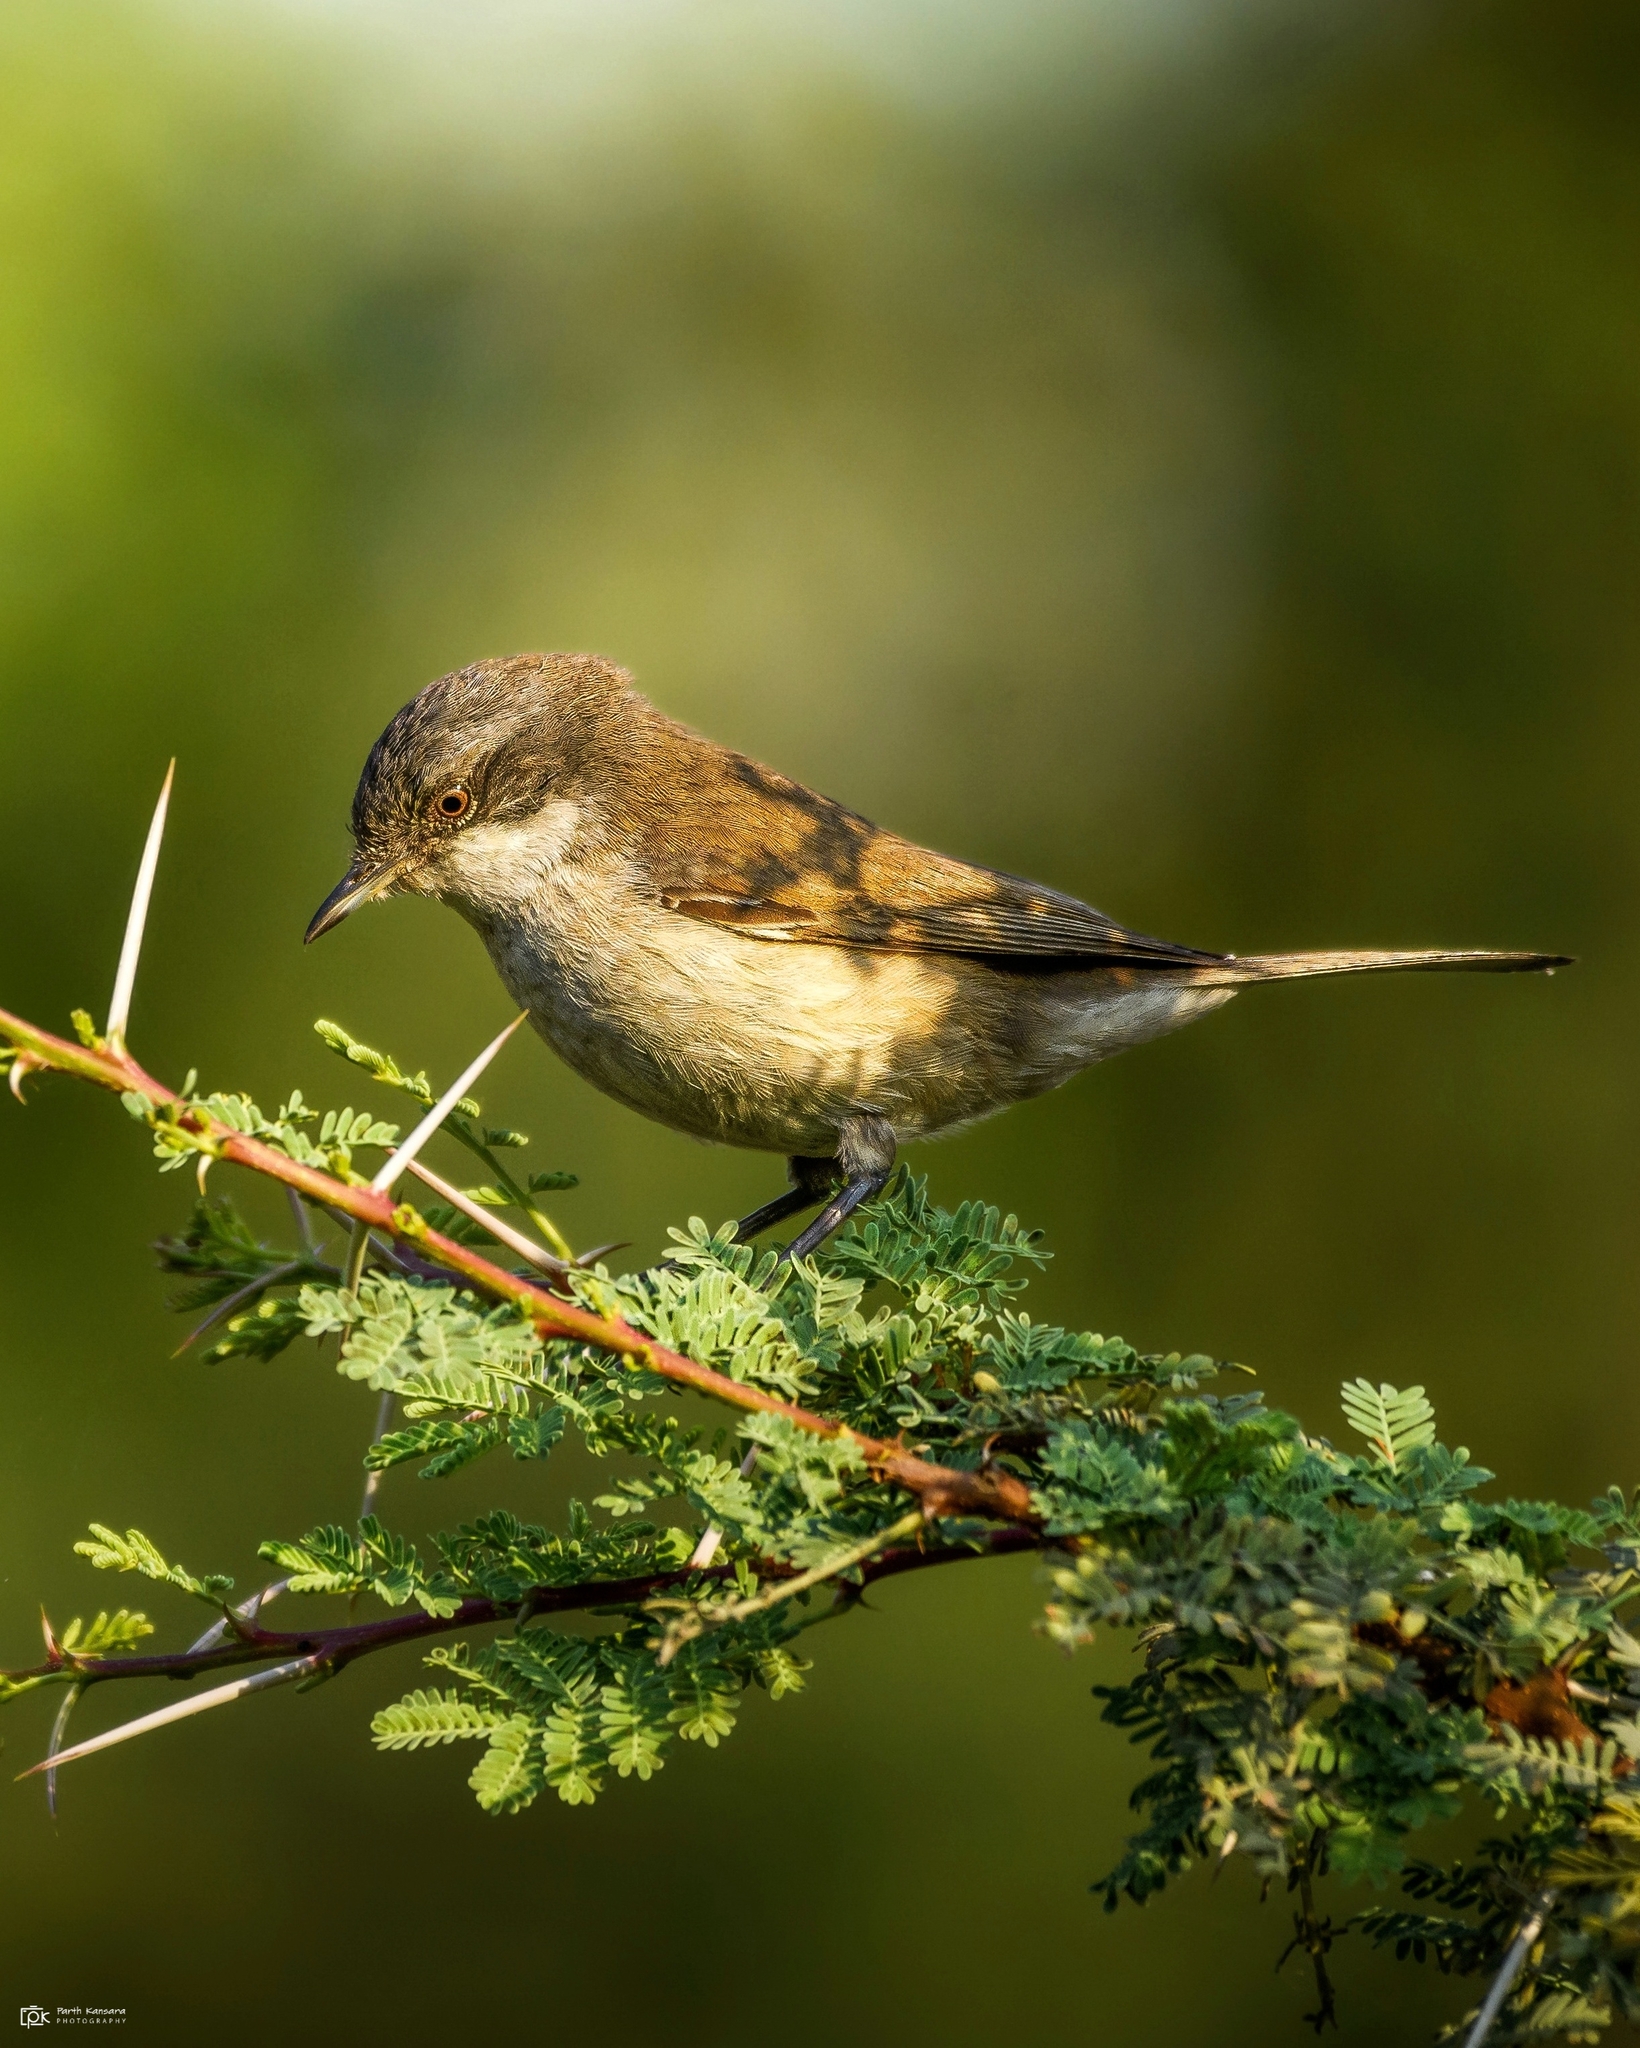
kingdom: Animalia
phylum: Chordata
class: Aves
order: Passeriformes
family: Sylviidae
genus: Sylvia
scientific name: Sylvia curruca
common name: Lesser whitethroat
